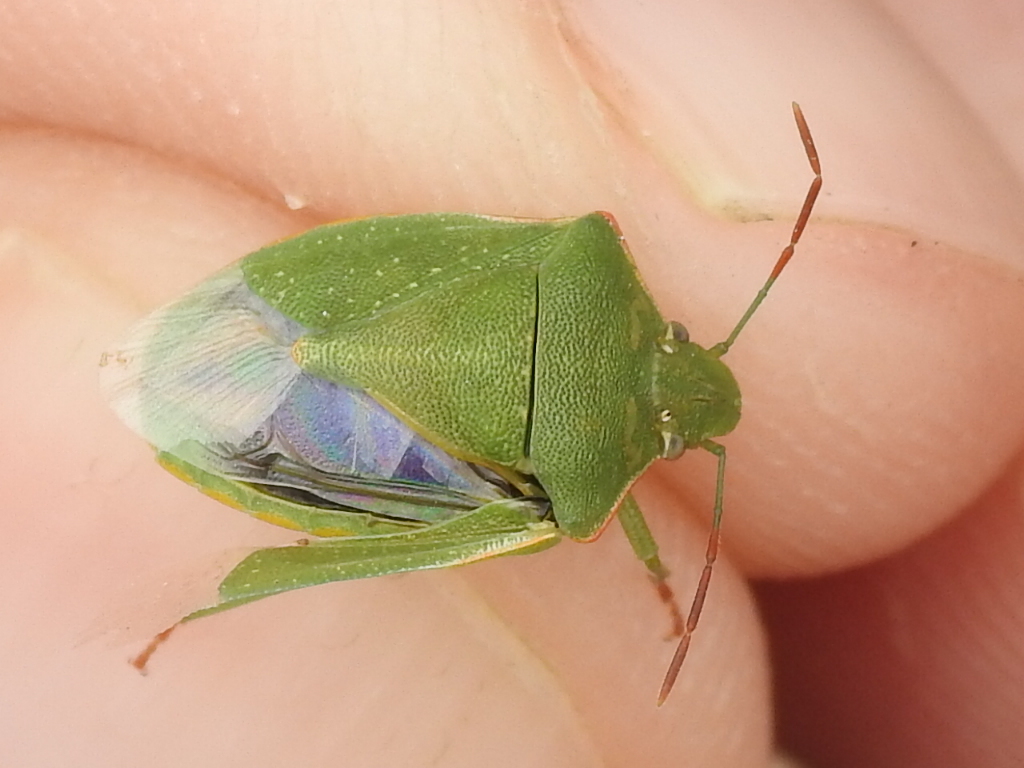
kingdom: Animalia
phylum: Arthropoda
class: Insecta
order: Hemiptera
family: Pentatomidae
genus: Thyanta
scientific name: Thyanta accerra
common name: Stink bug
